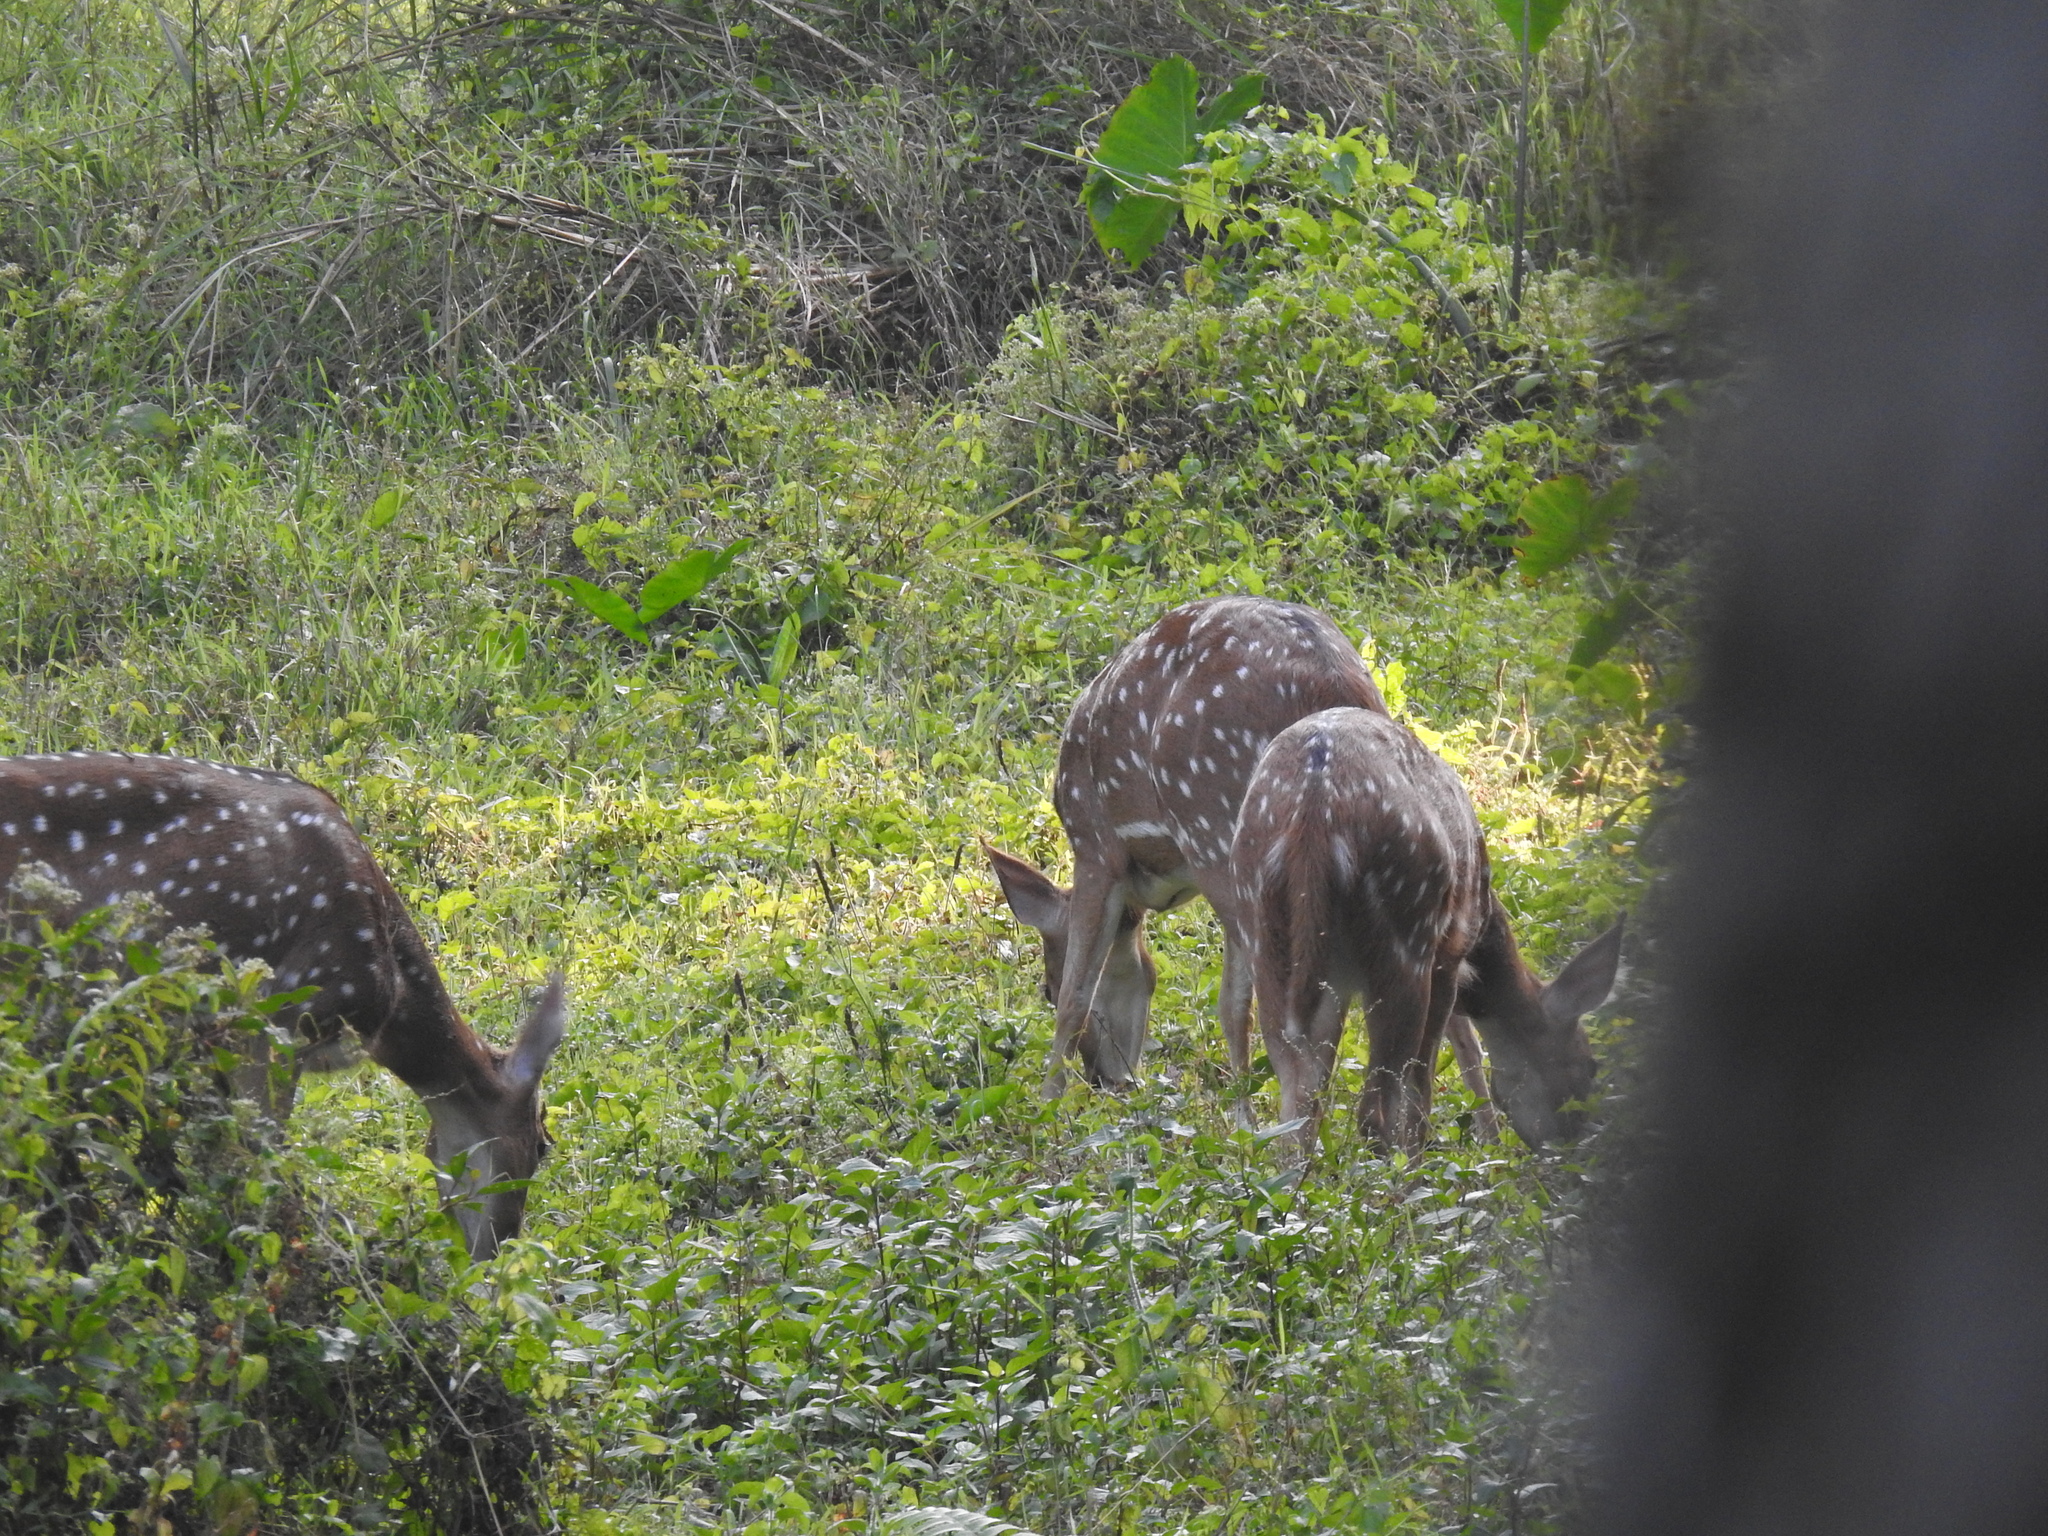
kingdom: Animalia
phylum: Chordata
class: Mammalia
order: Artiodactyla
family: Cervidae
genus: Axis
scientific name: Axis axis
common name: Chital
